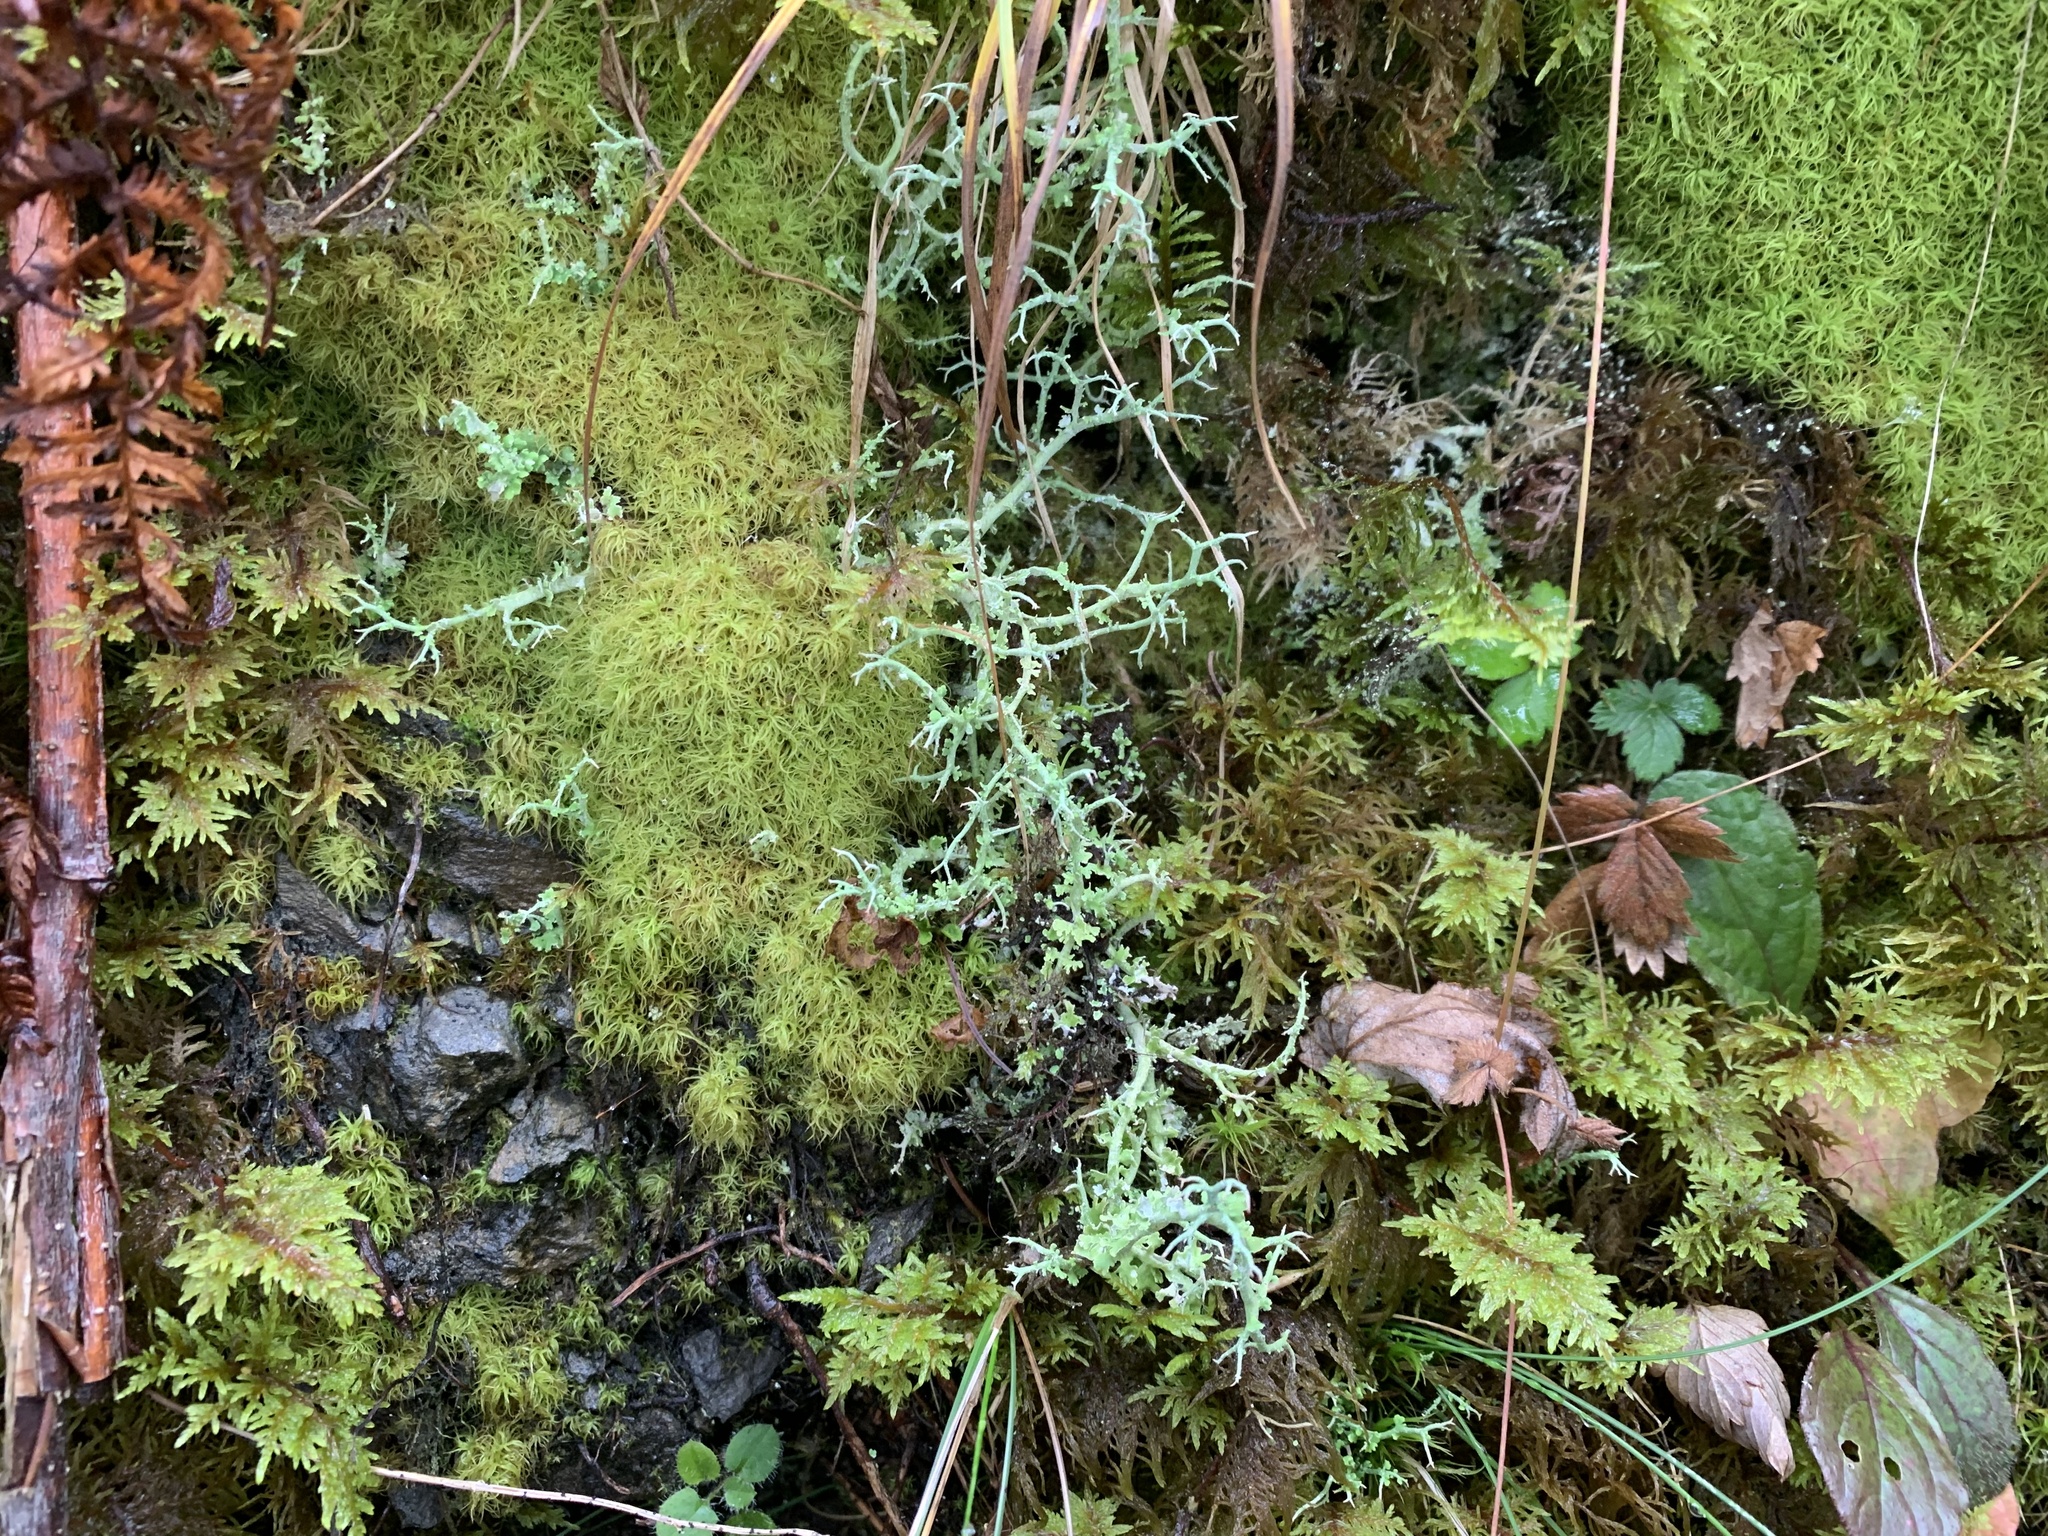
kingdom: Fungi
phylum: Ascomycota
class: Lecanoromycetes
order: Lecanorales
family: Cladoniaceae
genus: Cladonia
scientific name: Cladonia furcata
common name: Many-forked cladonia
